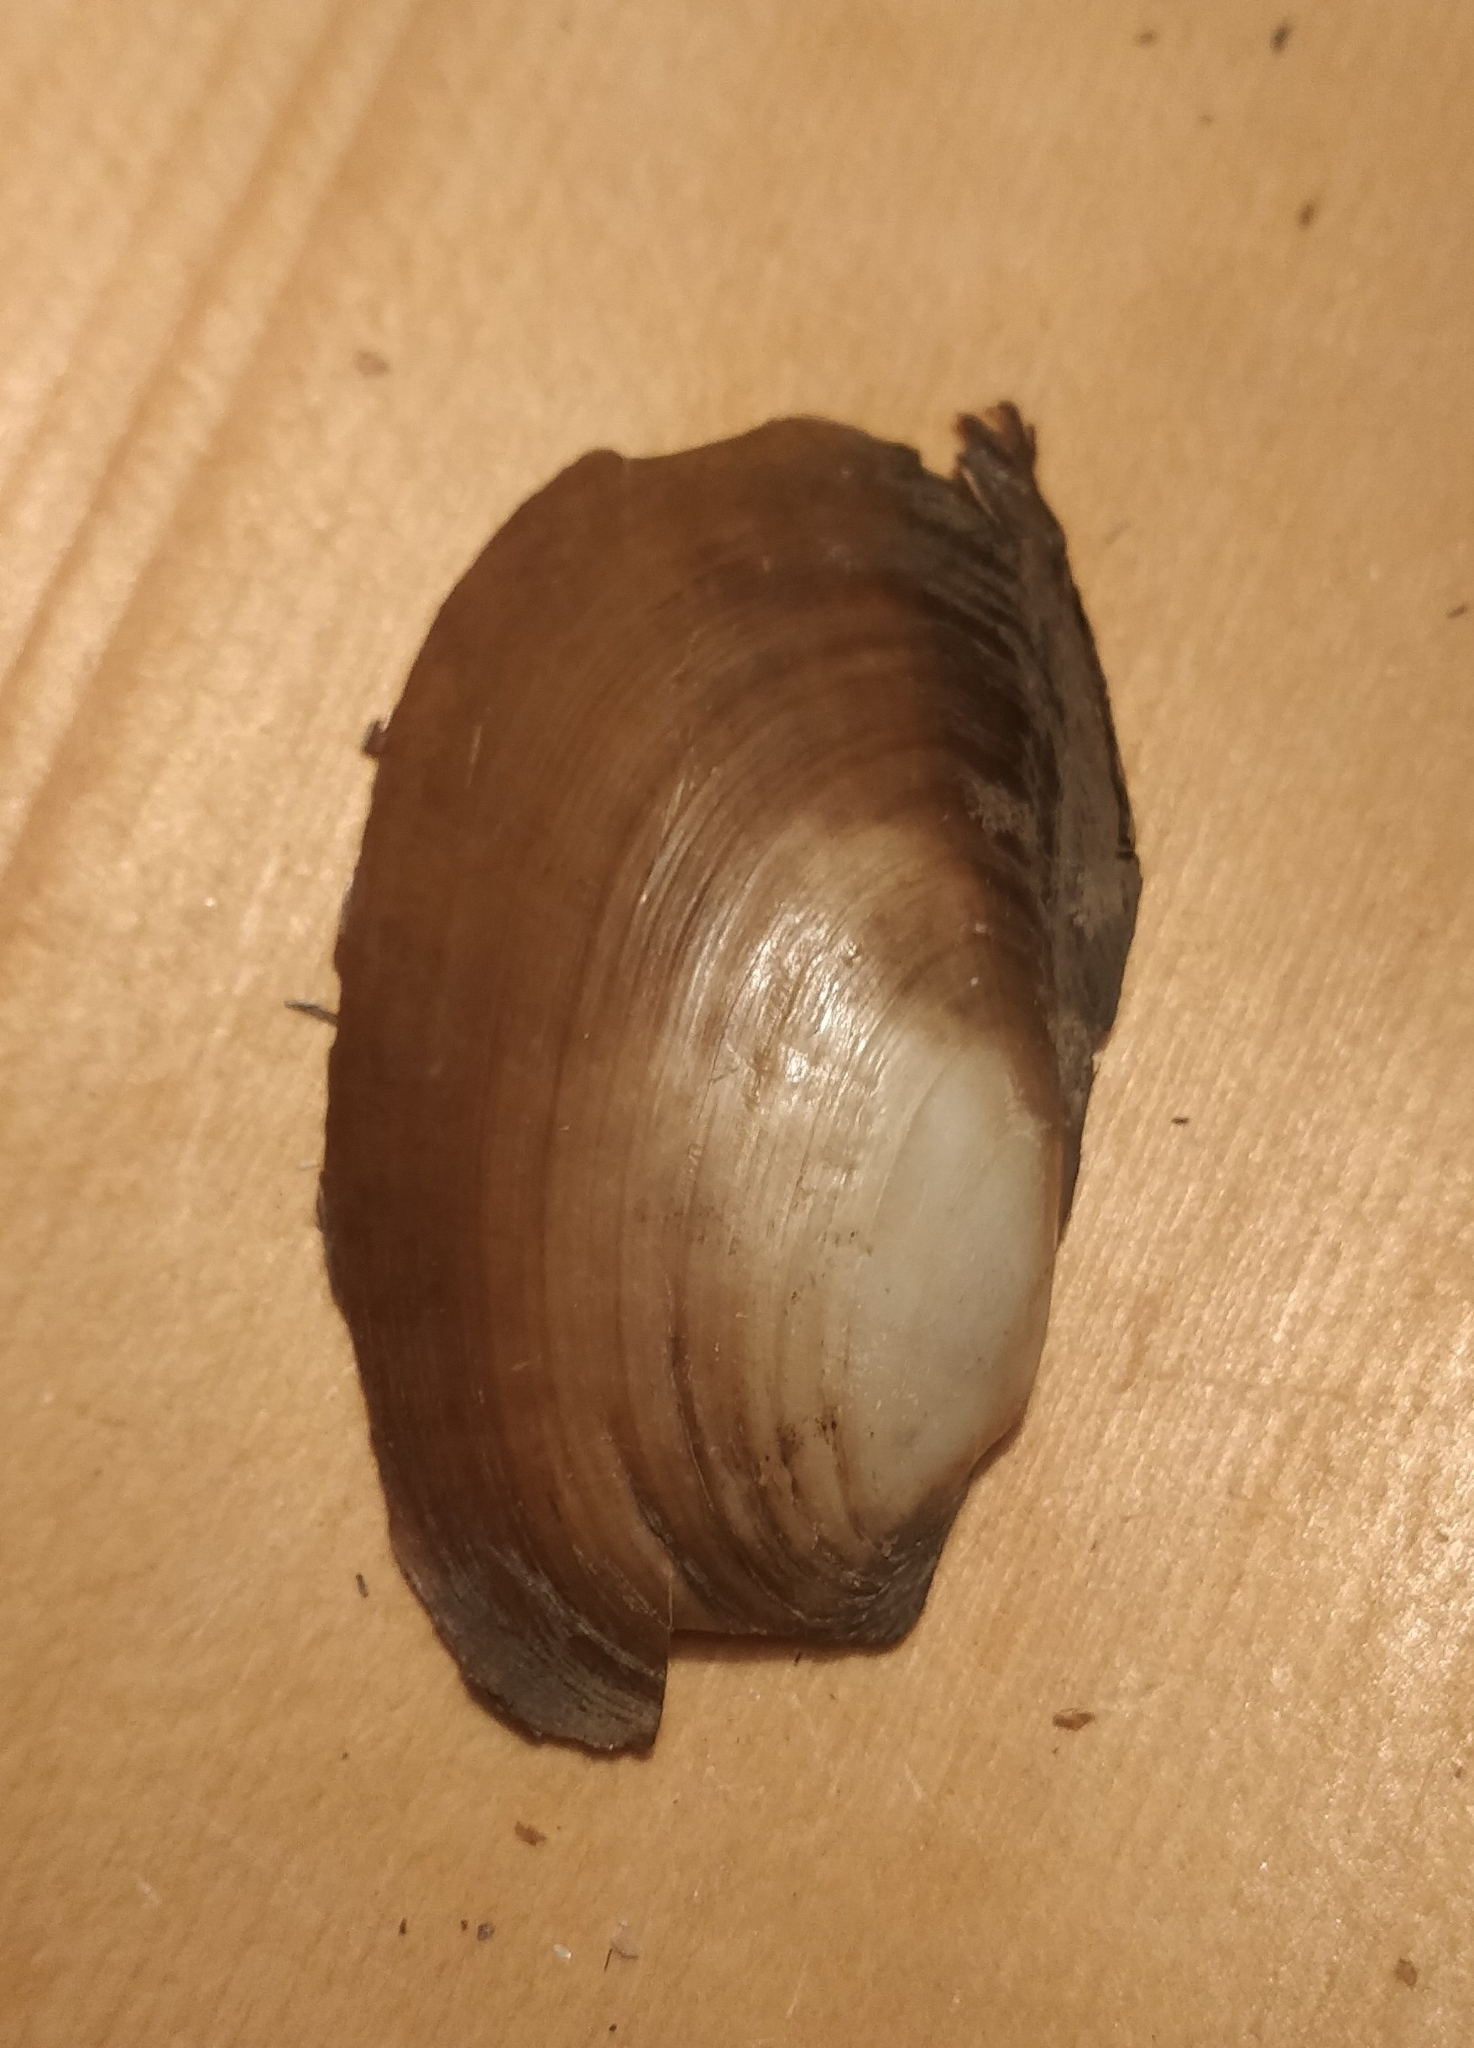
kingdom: Animalia
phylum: Mollusca
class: Bivalvia
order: Unionida
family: Unionidae
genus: Potamilus
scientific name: Potamilus fragilis
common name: Fragile papershell
